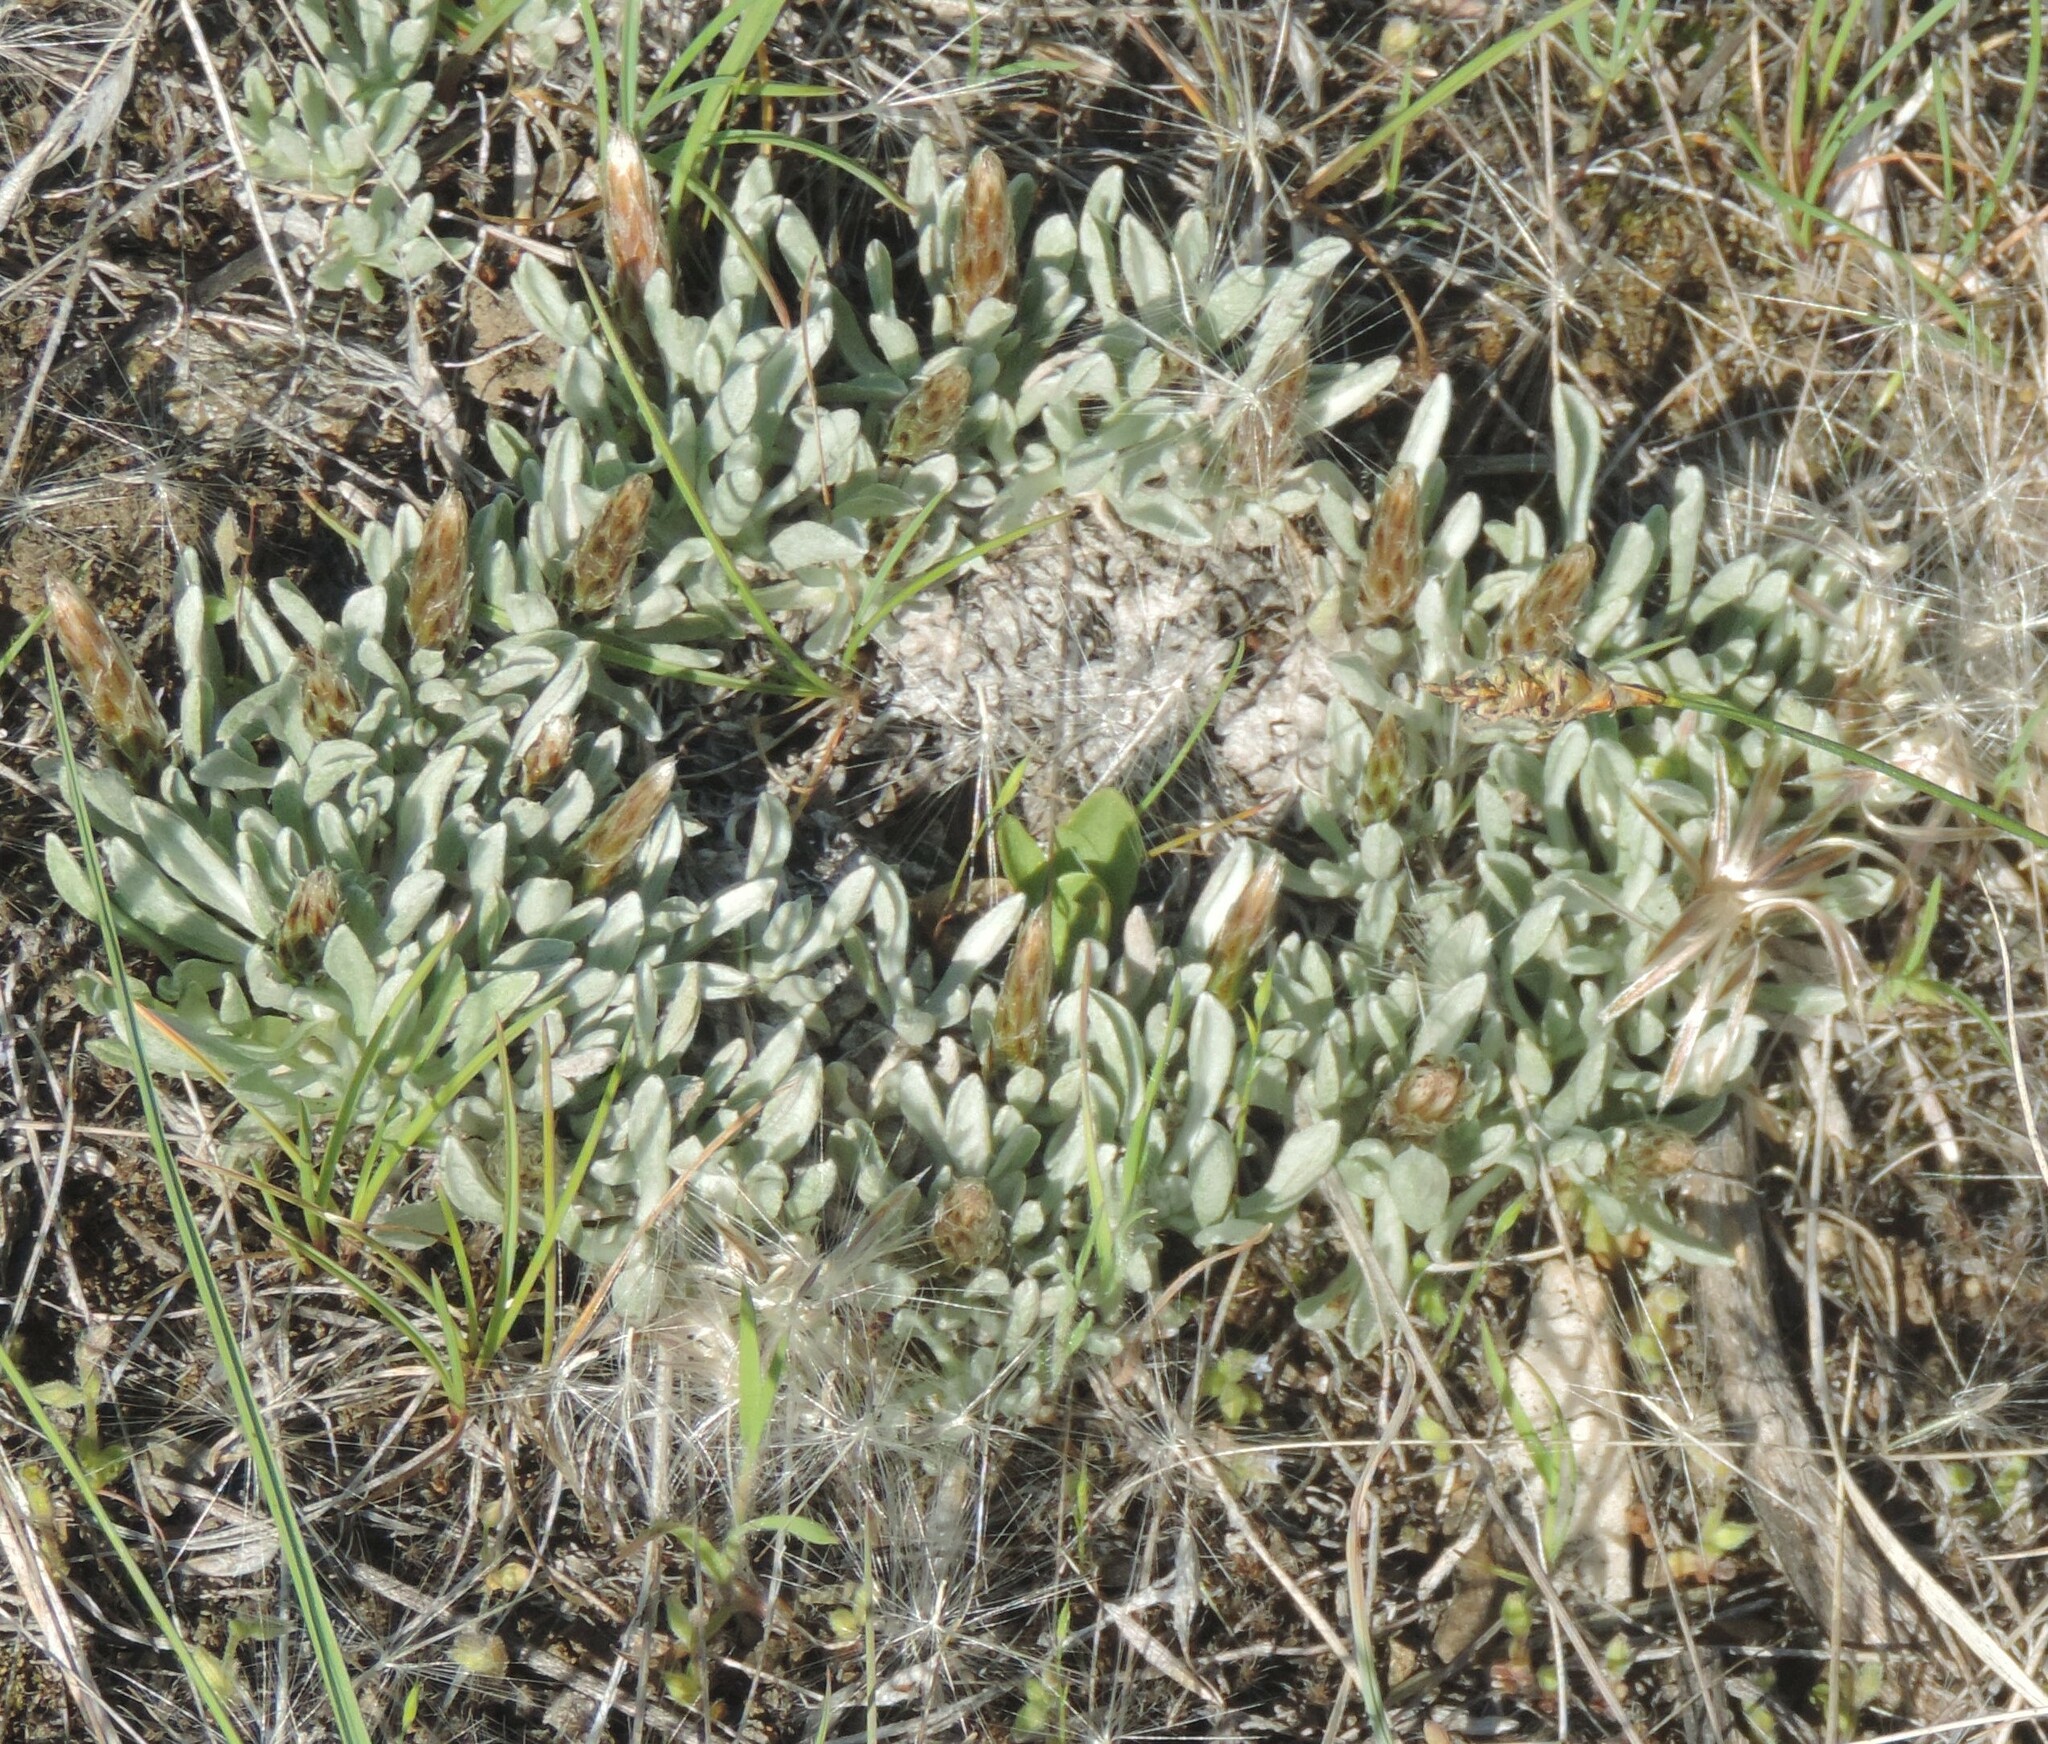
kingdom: Plantae
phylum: Tracheophyta
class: Magnoliopsida
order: Asterales
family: Asteraceae
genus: Antennaria
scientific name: Antennaria dimorpha
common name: Cushion pussytoes
